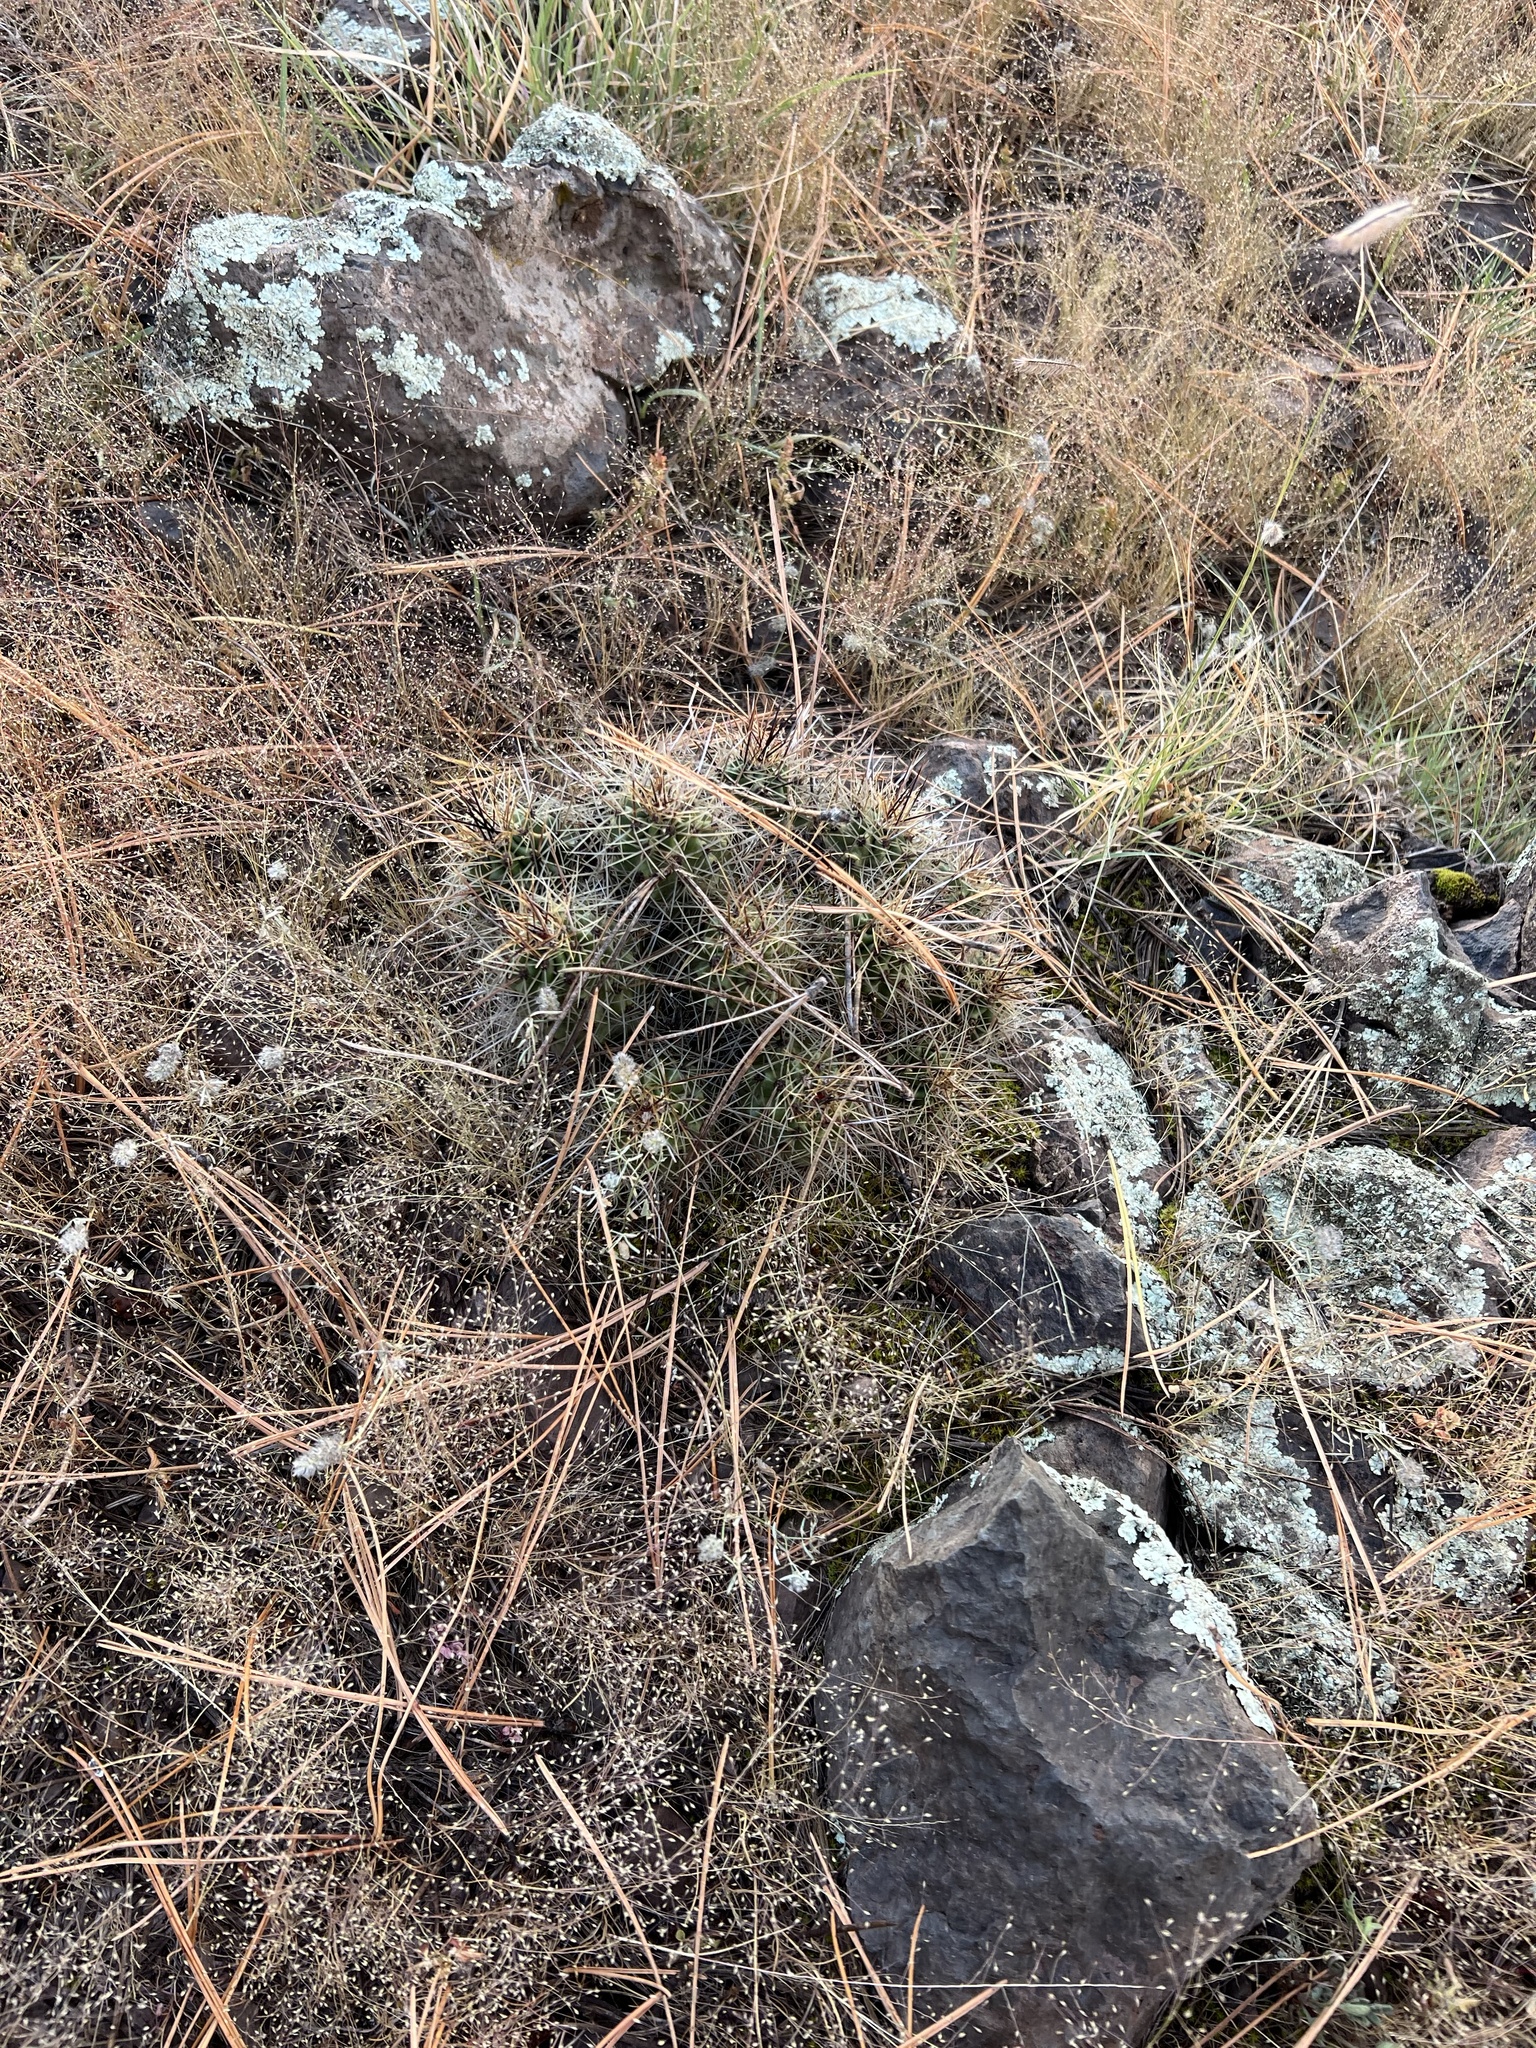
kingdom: Plantae
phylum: Tracheophyta
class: Magnoliopsida
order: Caryophyllales
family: Cactaceae
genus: Echinocereus
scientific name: Echinocereus bakeri
